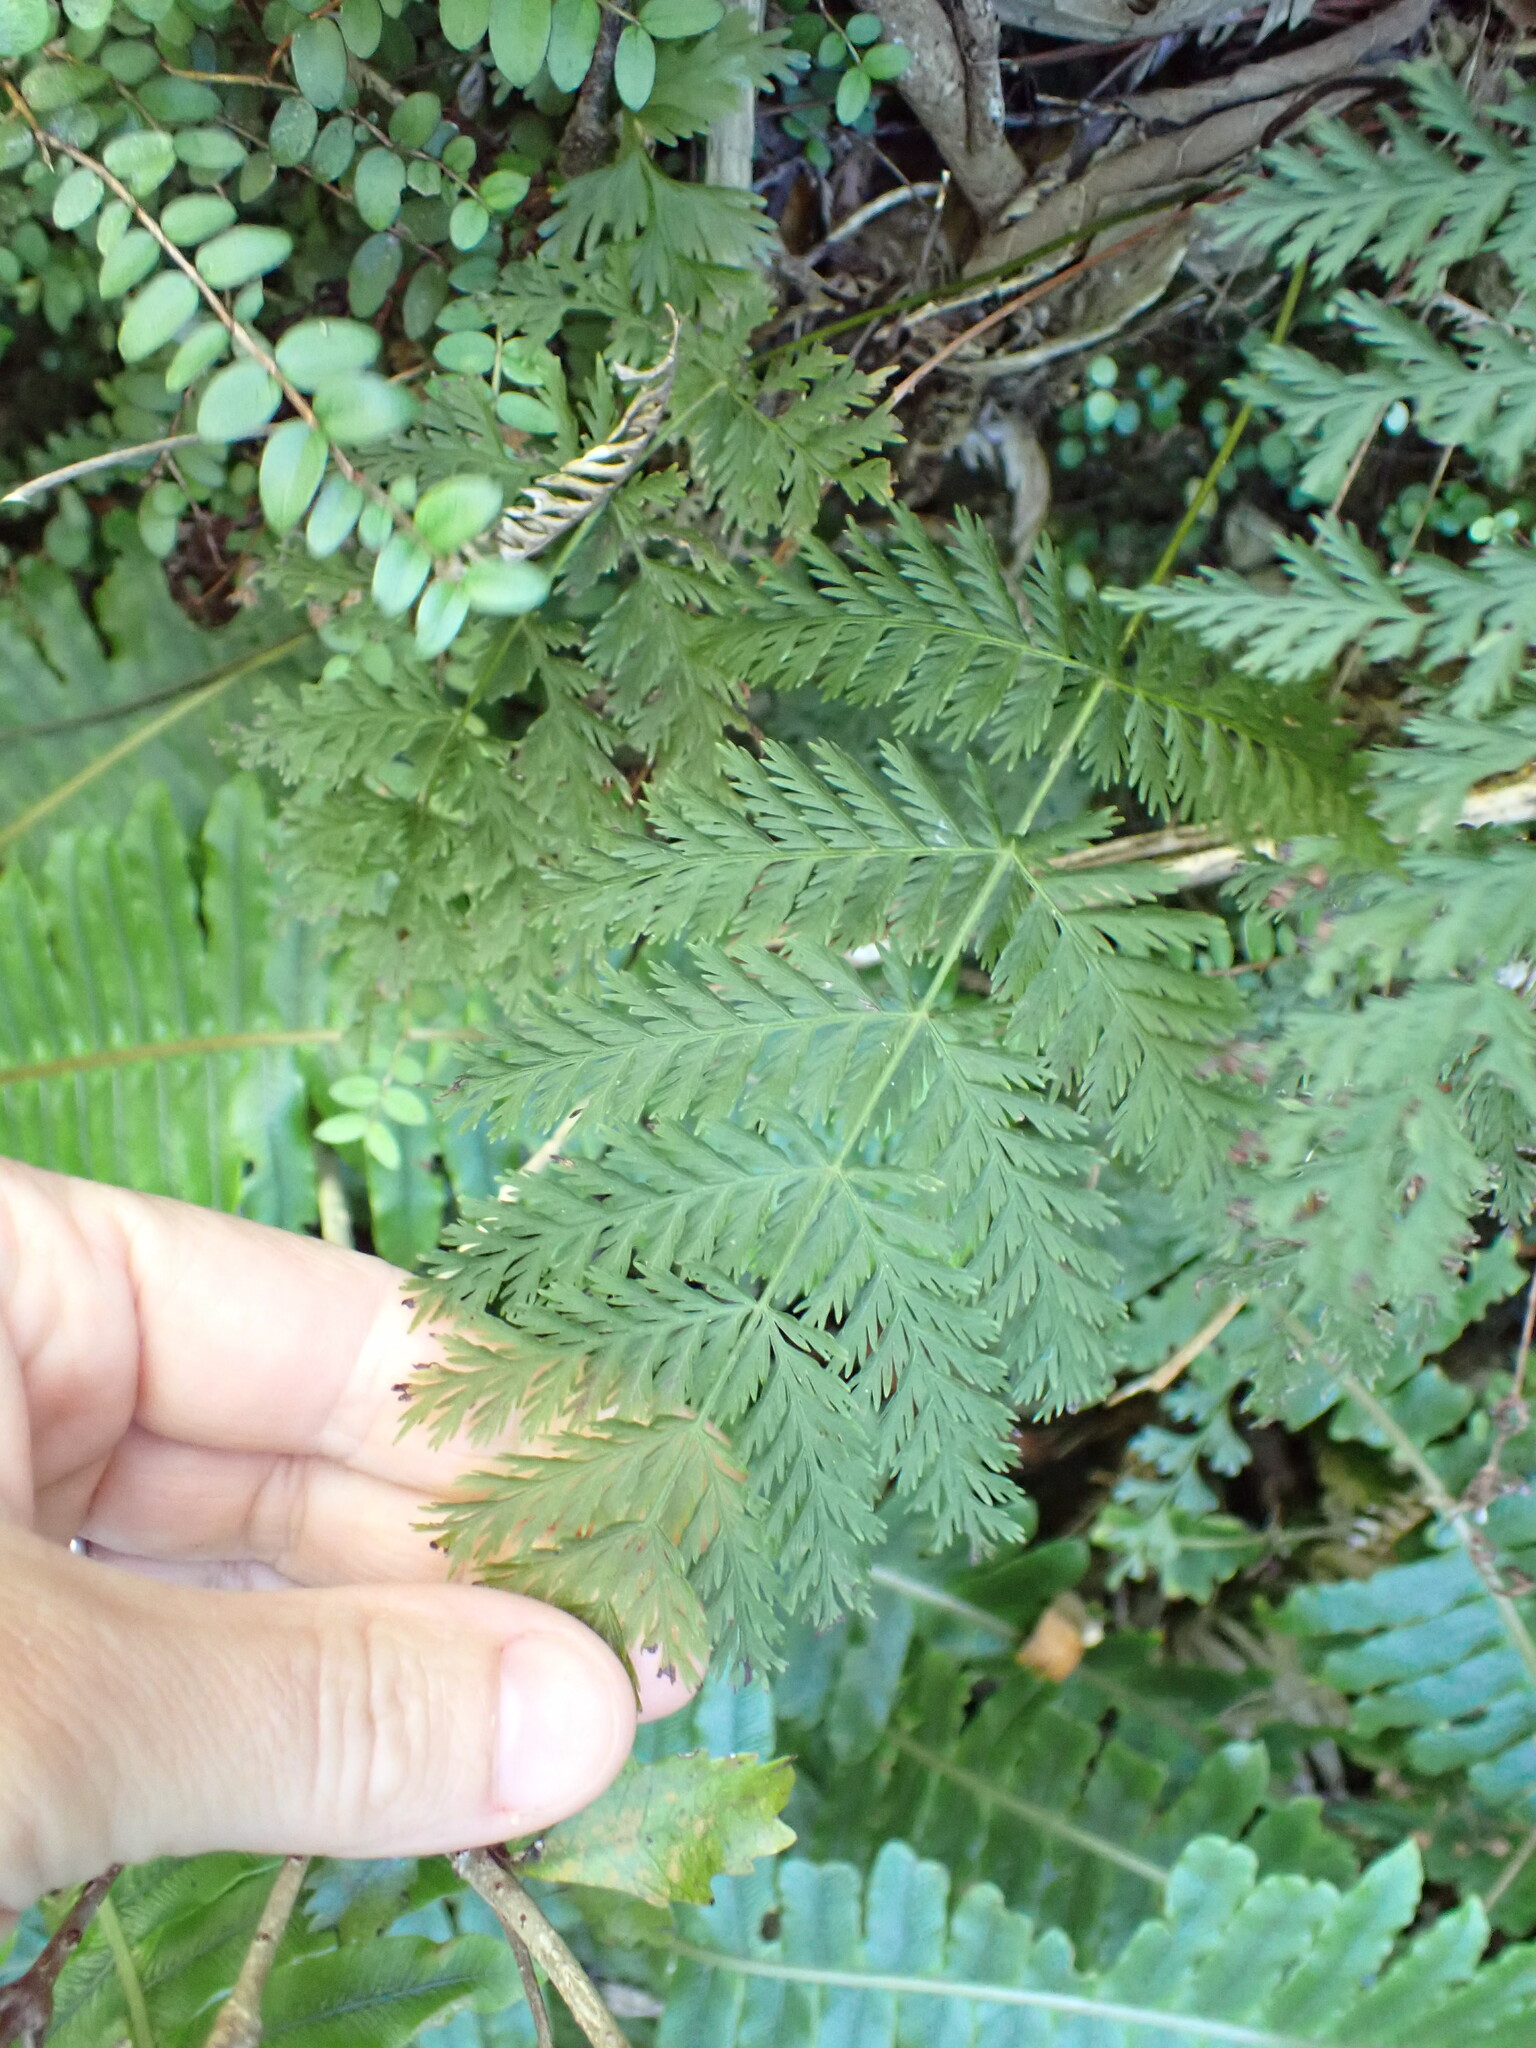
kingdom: Plantae
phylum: Tracheophyta
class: Polypodiopsida
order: Osmundales
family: Osmundaceae
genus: Leptopteris
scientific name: Leptopteris hymenophylloides
